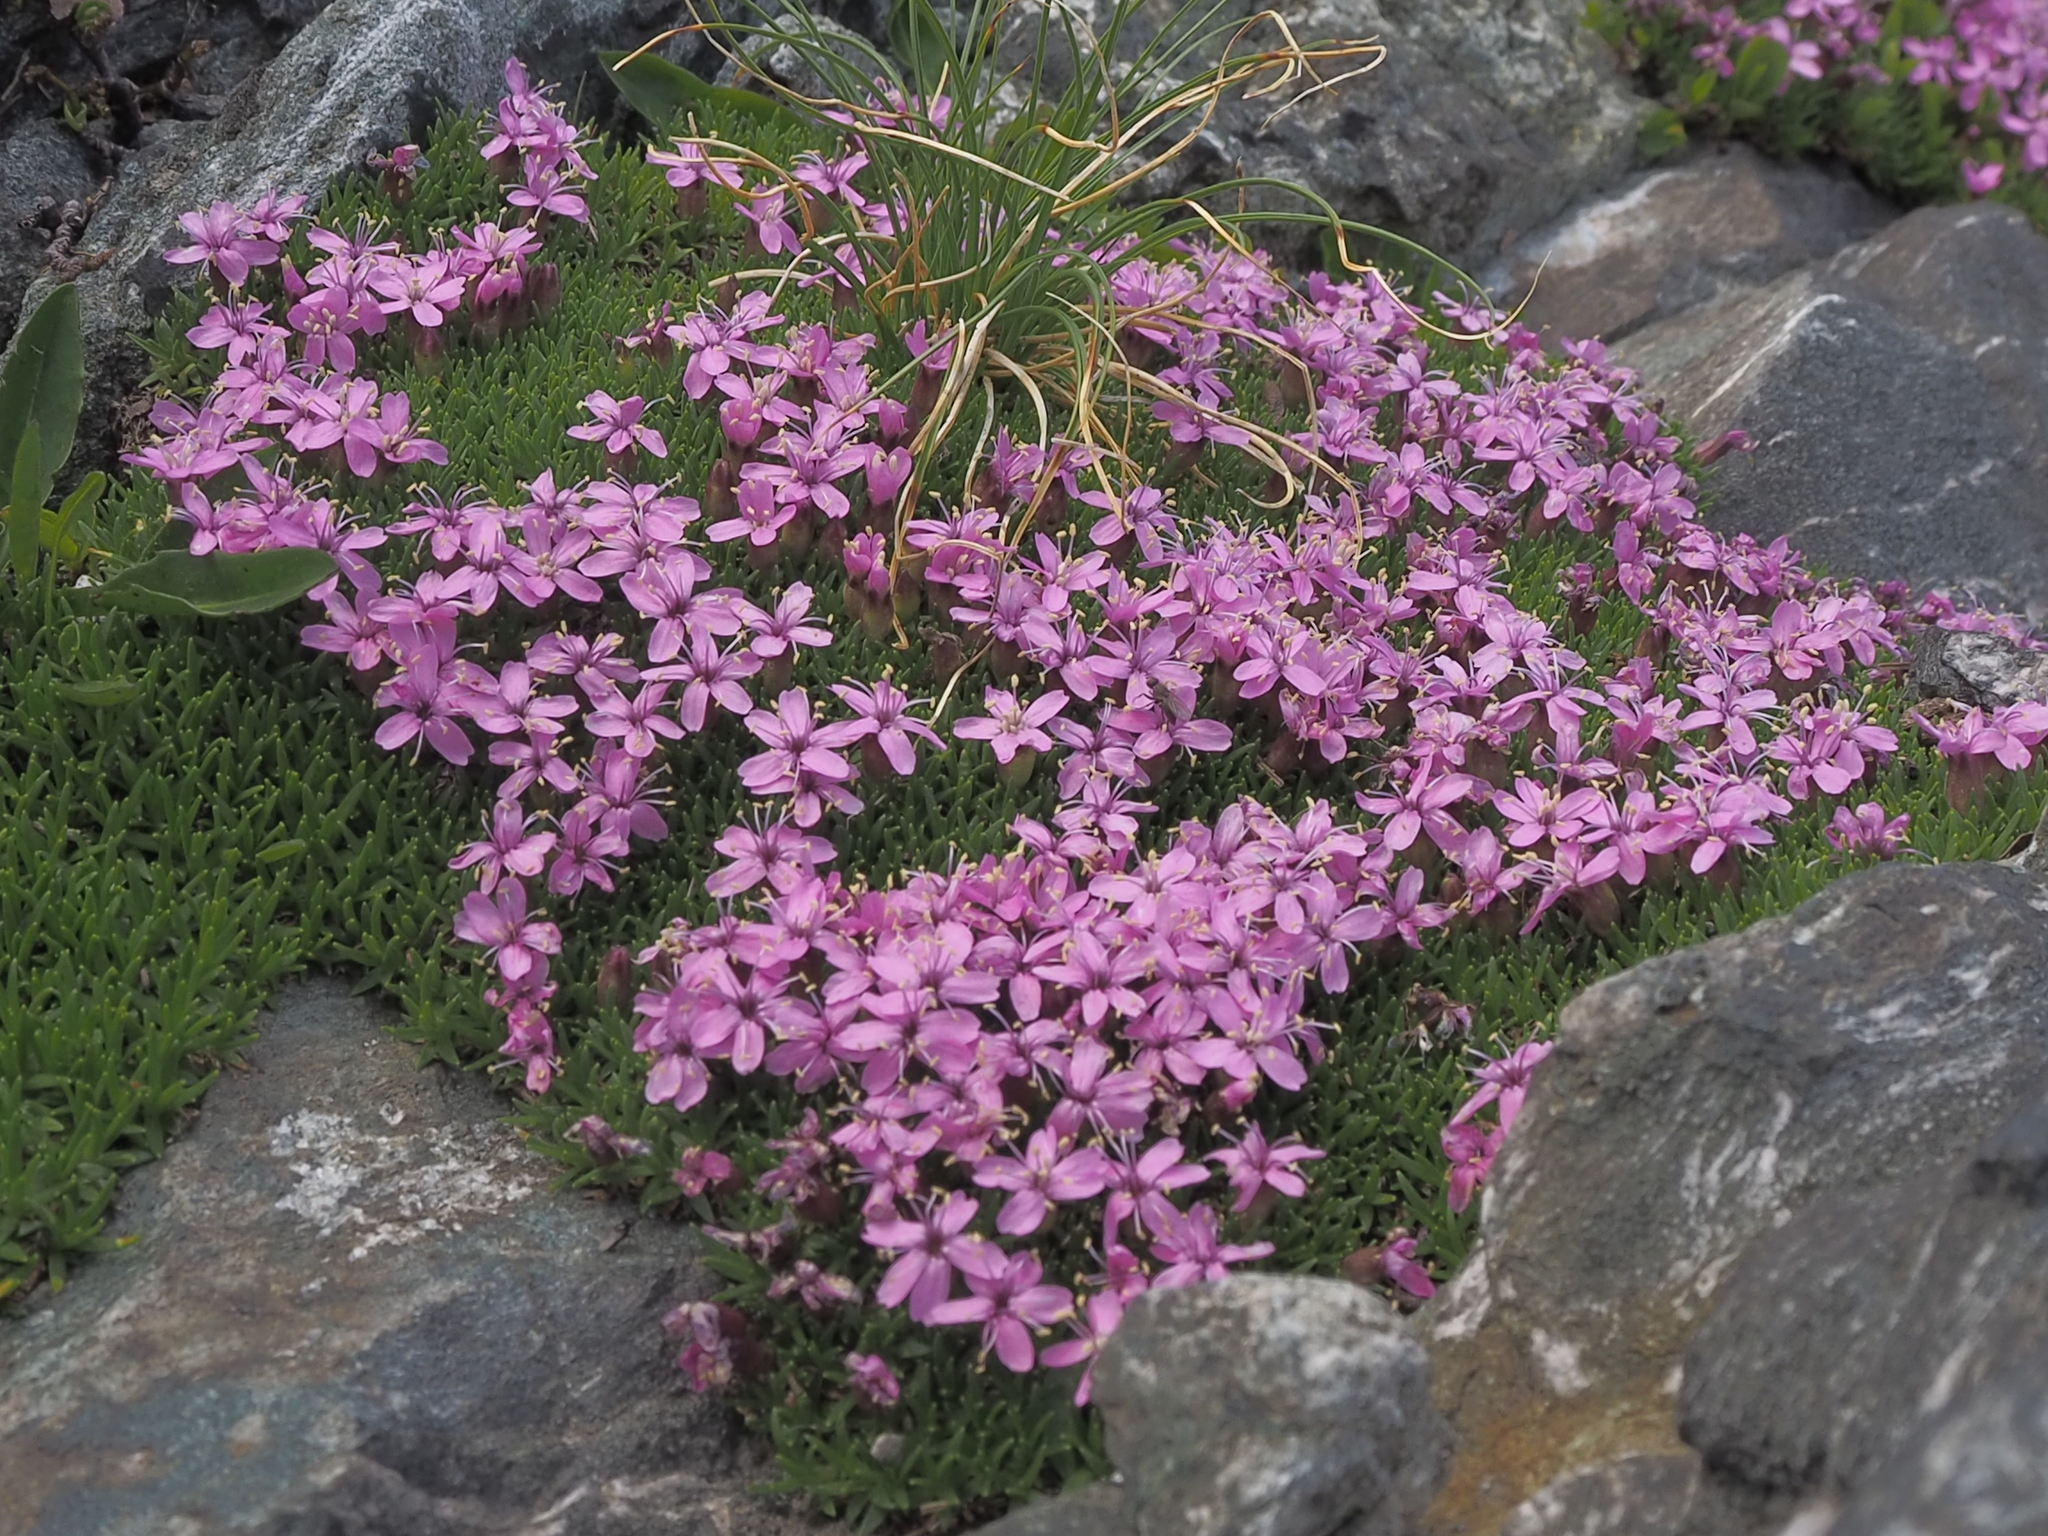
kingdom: Plantae
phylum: Tracheophyta
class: Magnoliopsida
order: Caryophyllales
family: Caryophyllaceae
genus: Silene
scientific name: Silene acaulis
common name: Moss campion
